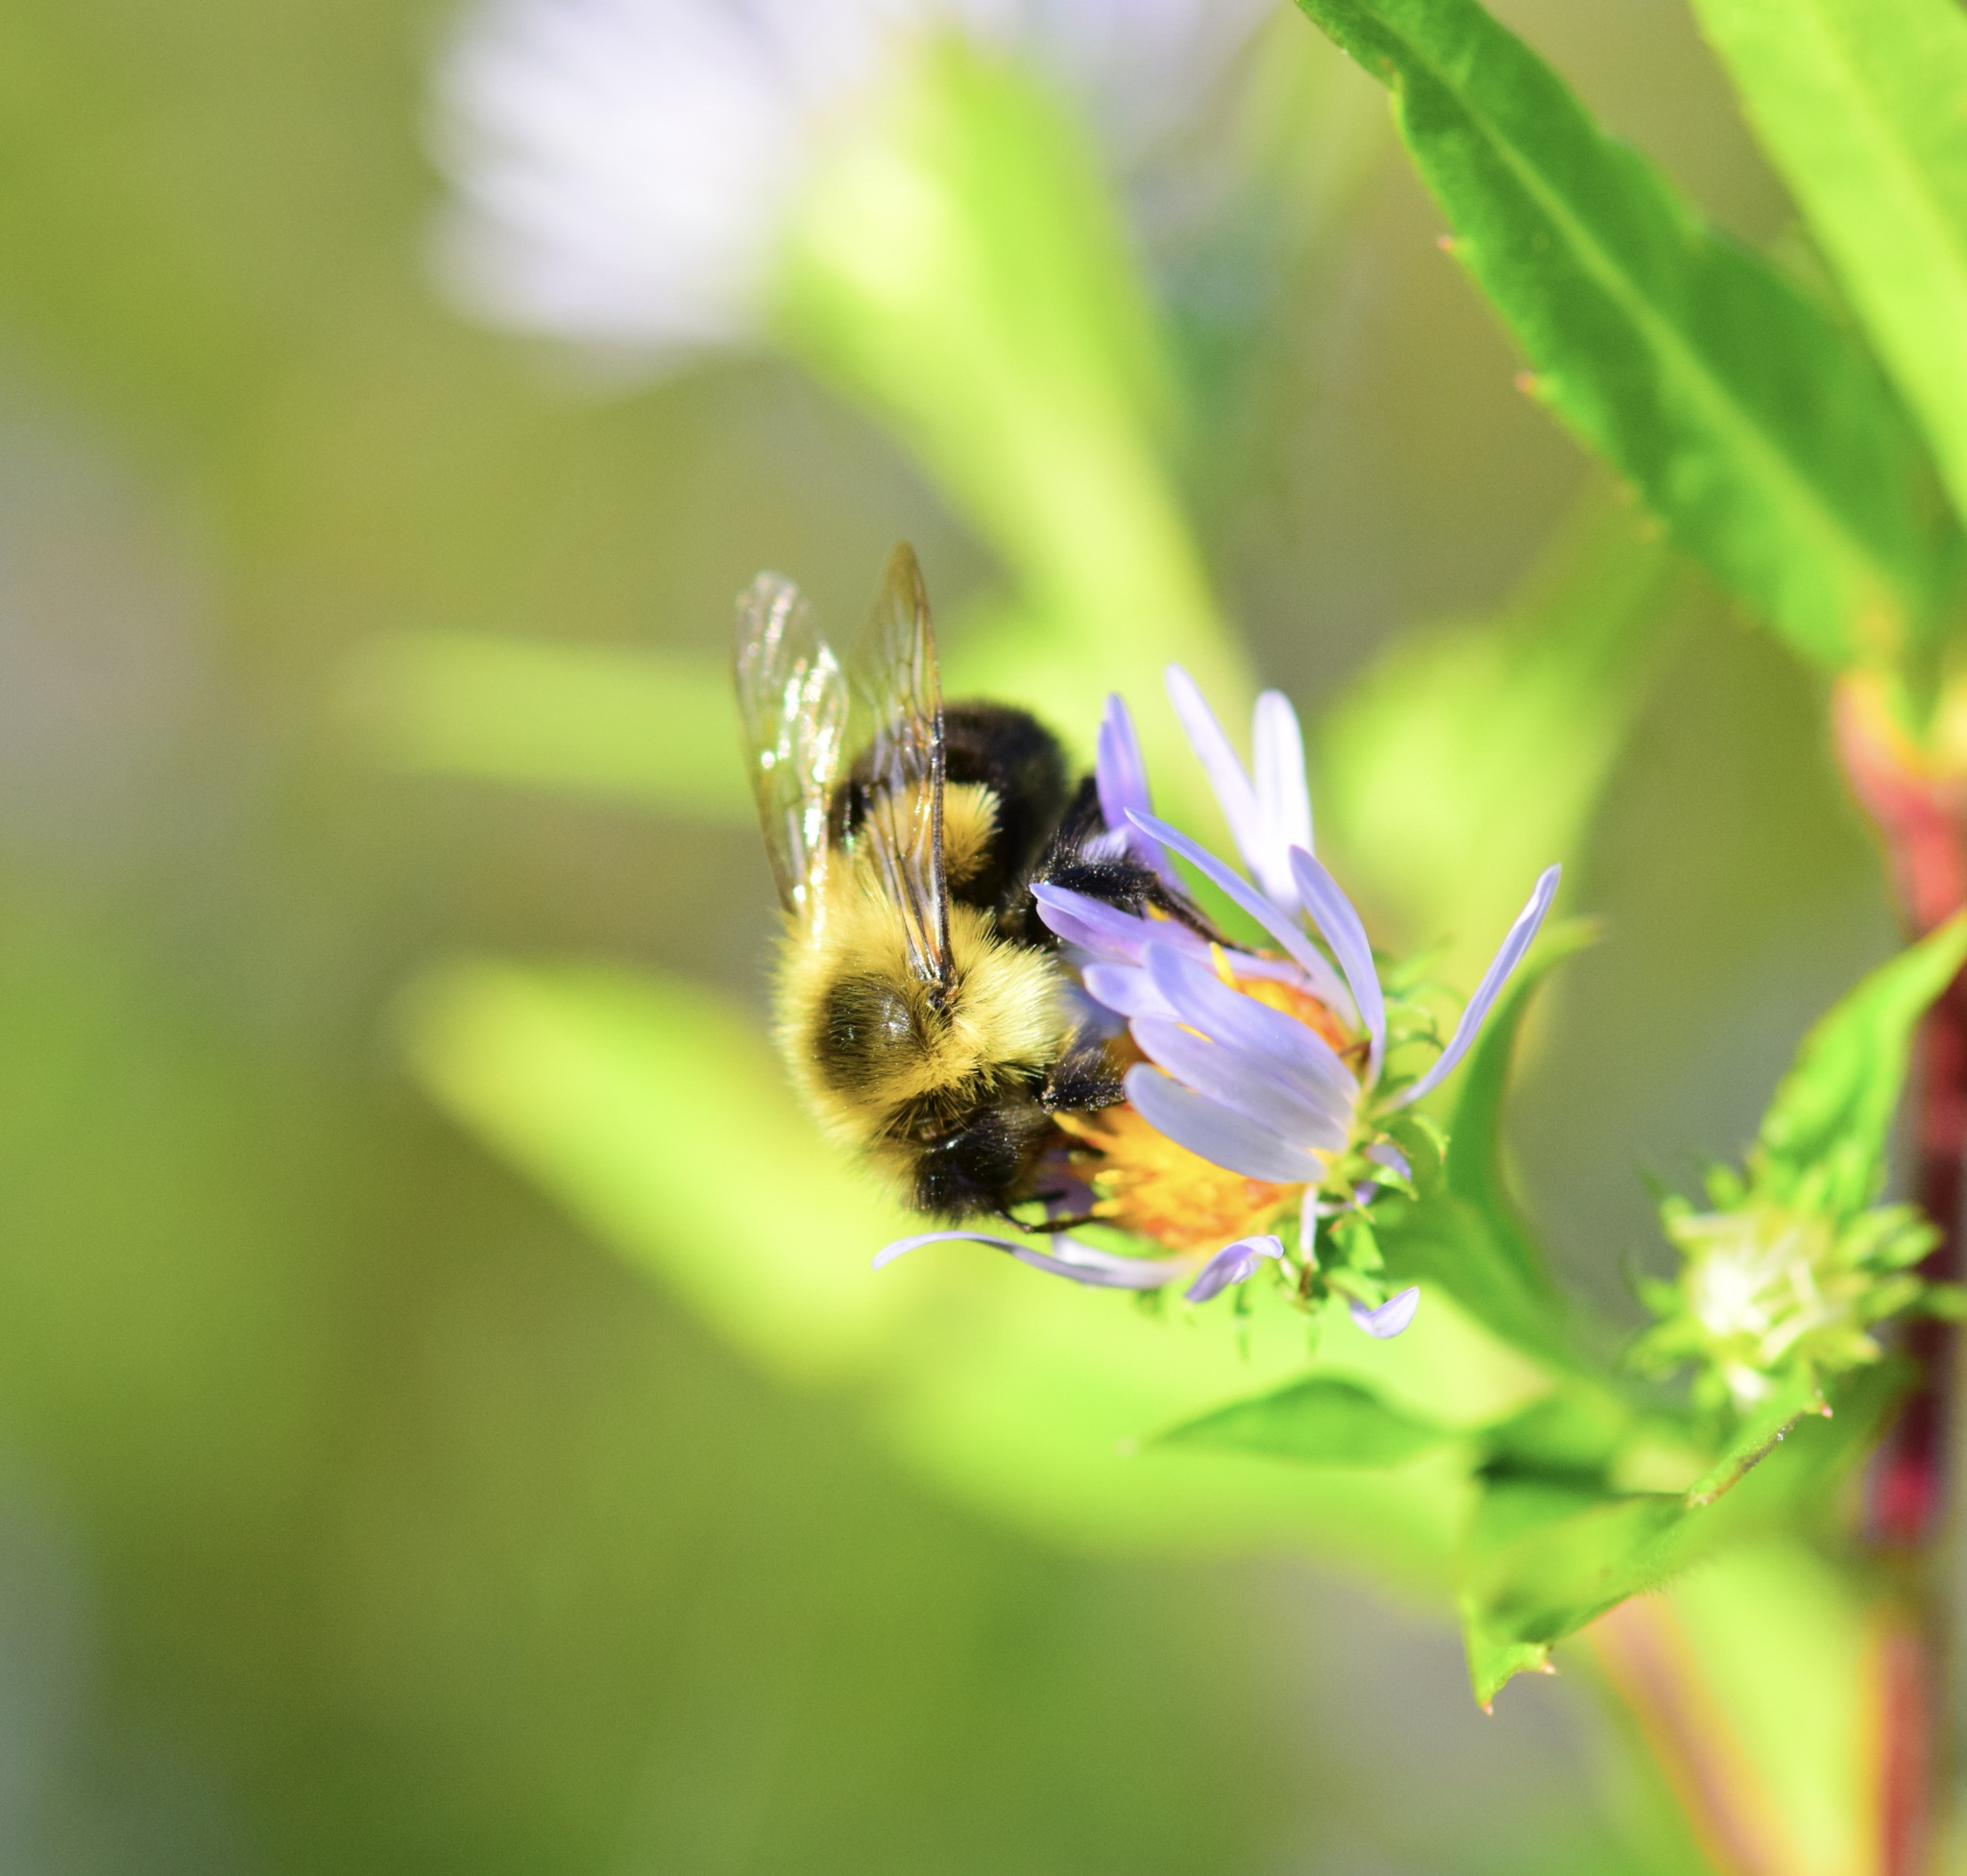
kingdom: Animalia
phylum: Arthropoda
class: Insecta
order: Hymenoptera
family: Apidae
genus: Bombus
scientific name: Bombus impatiens
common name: Common eastern bumble bee
